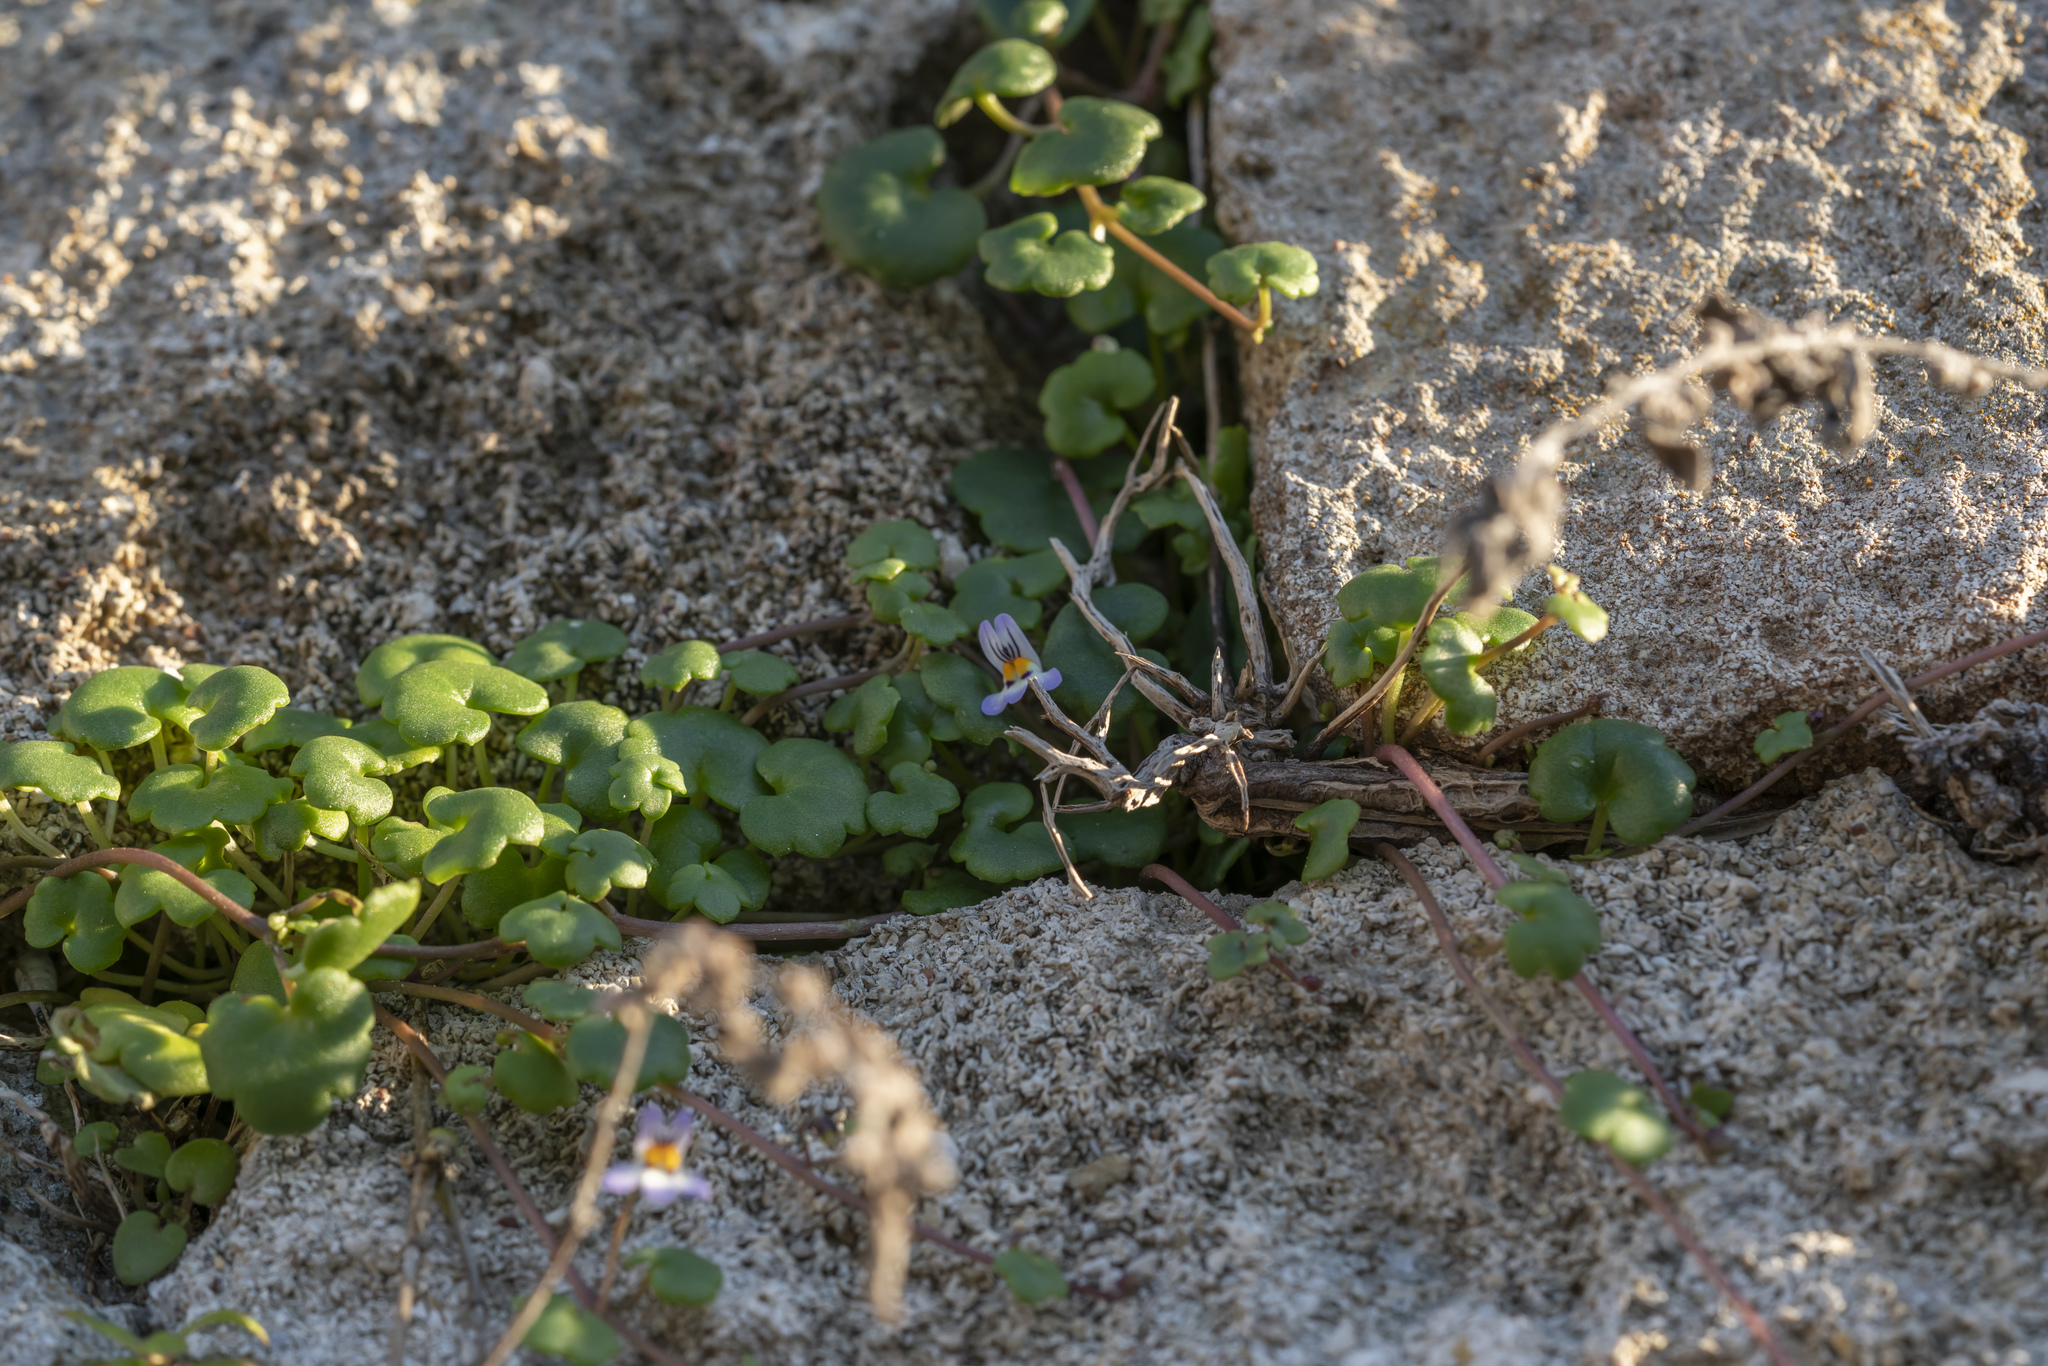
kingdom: Plantae
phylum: Tracheophyta
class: Magnoliopsida
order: Lamiales
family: Plantaginaceae
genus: Cymbalaria
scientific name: Cymbalaria longipes
